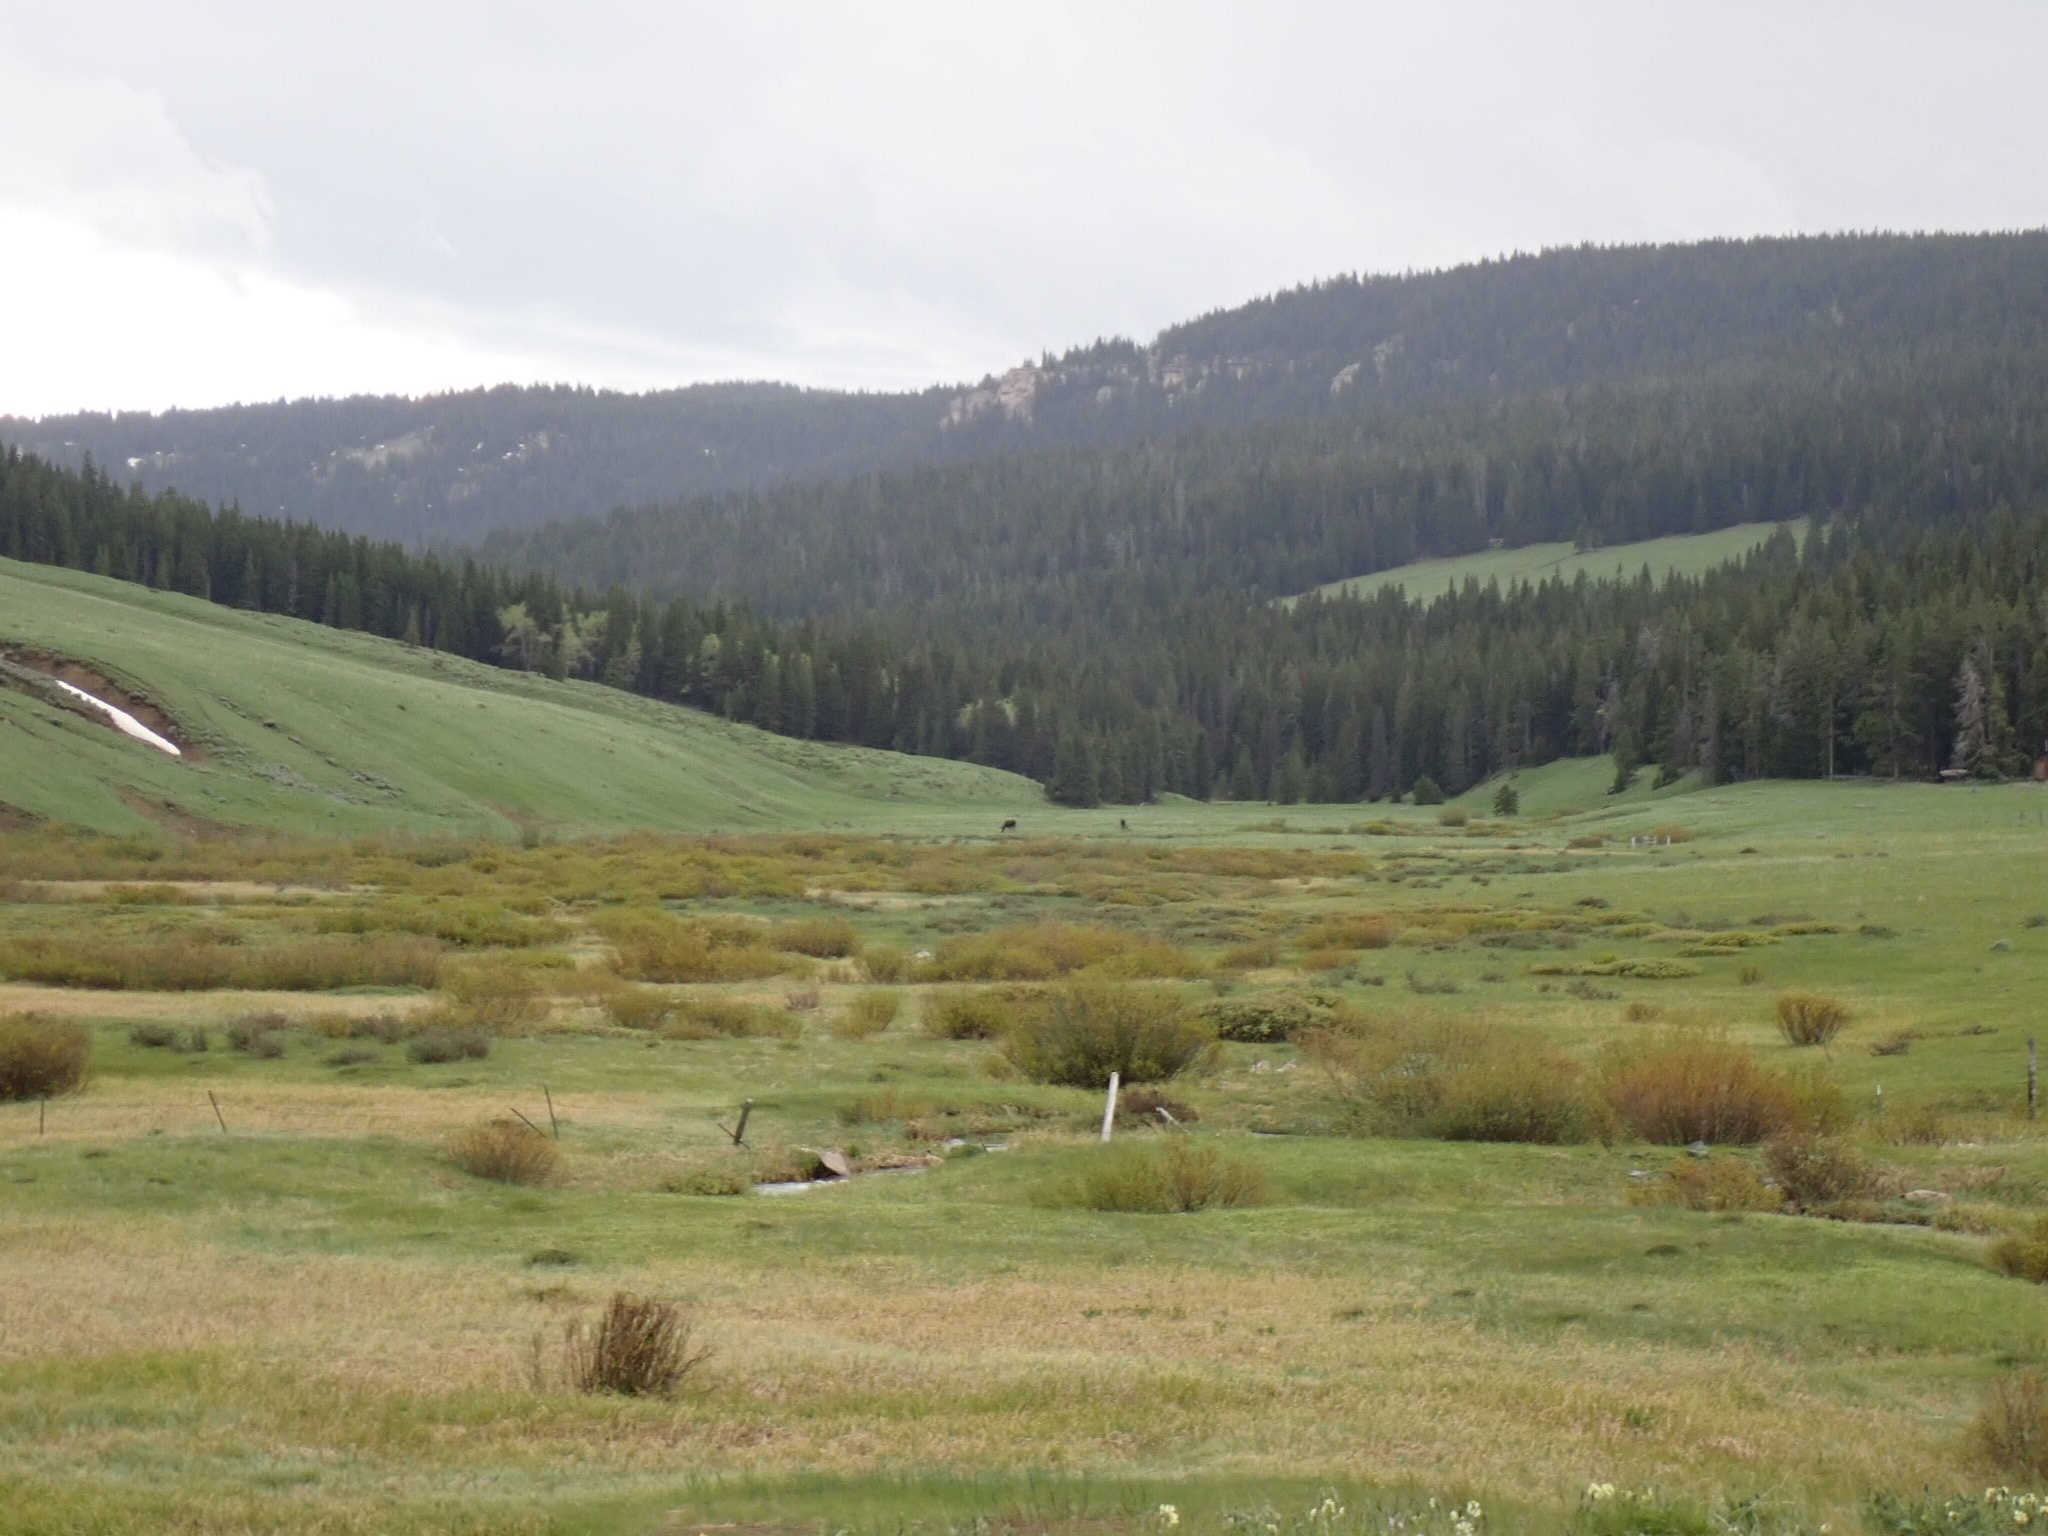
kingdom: Animalia
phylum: Chordata
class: Mammalia
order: Artiodactyla
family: Cervidae
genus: Alces
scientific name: Alces alces
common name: Moose
